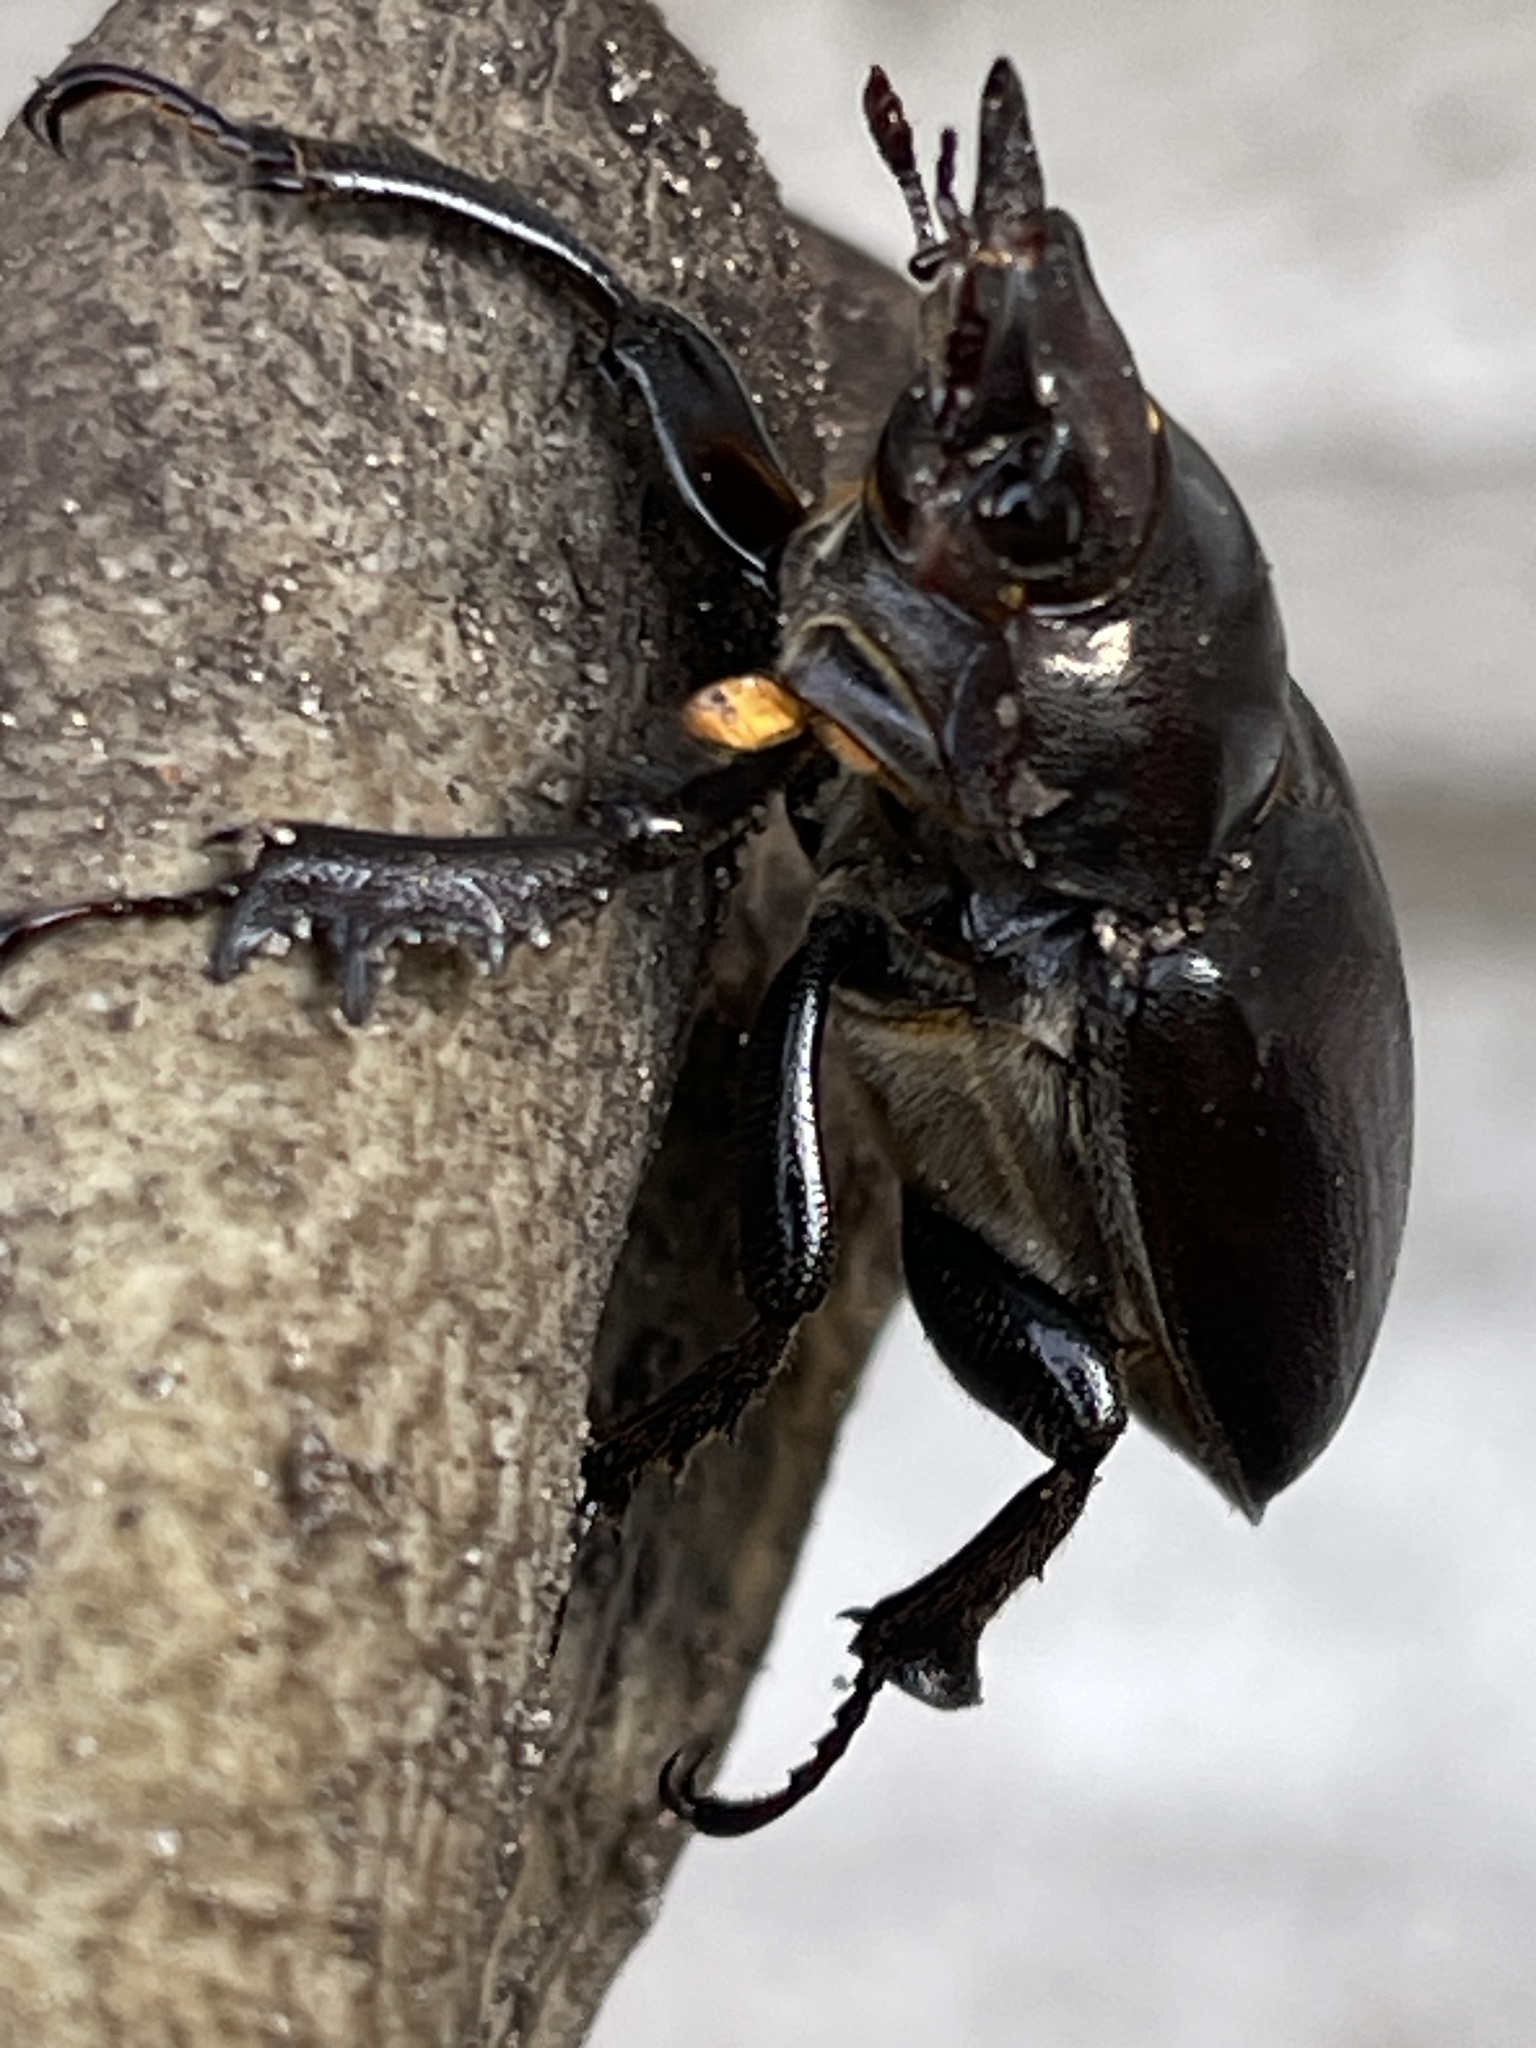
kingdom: Animalia
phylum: Arthropoda
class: Insecta
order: Coleoptera
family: Lucanidae
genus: Lucanus
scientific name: Lucanus placidus
